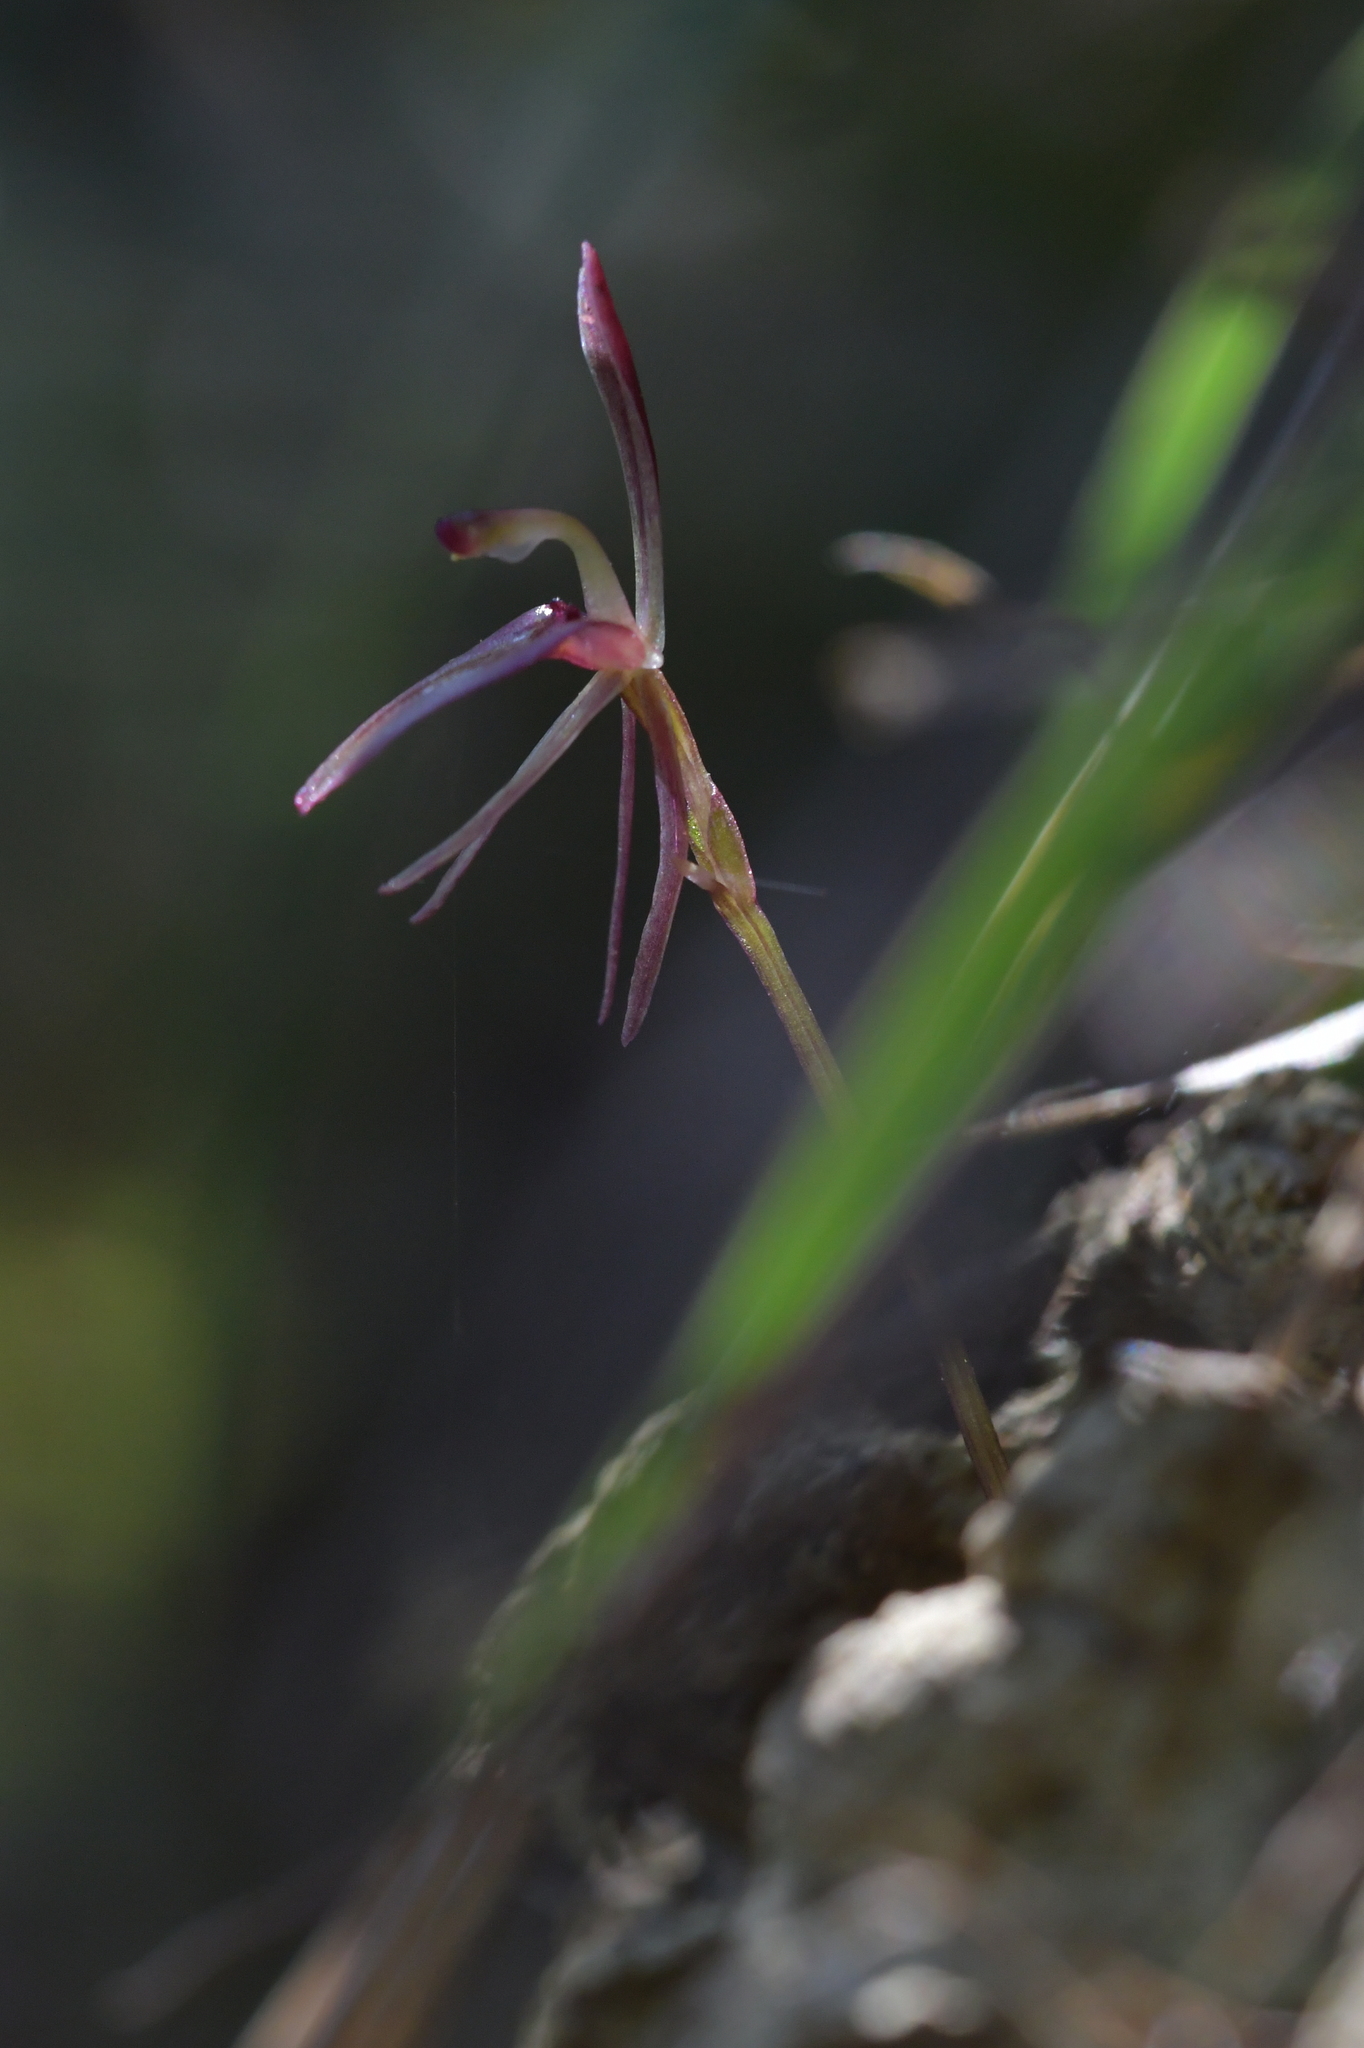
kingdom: Plantae
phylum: Tracheophyta
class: Liliopsida
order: Asparagales
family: Orchidaceae
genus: Cyrtostylis
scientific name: Cyrtostylis rotundifolia
